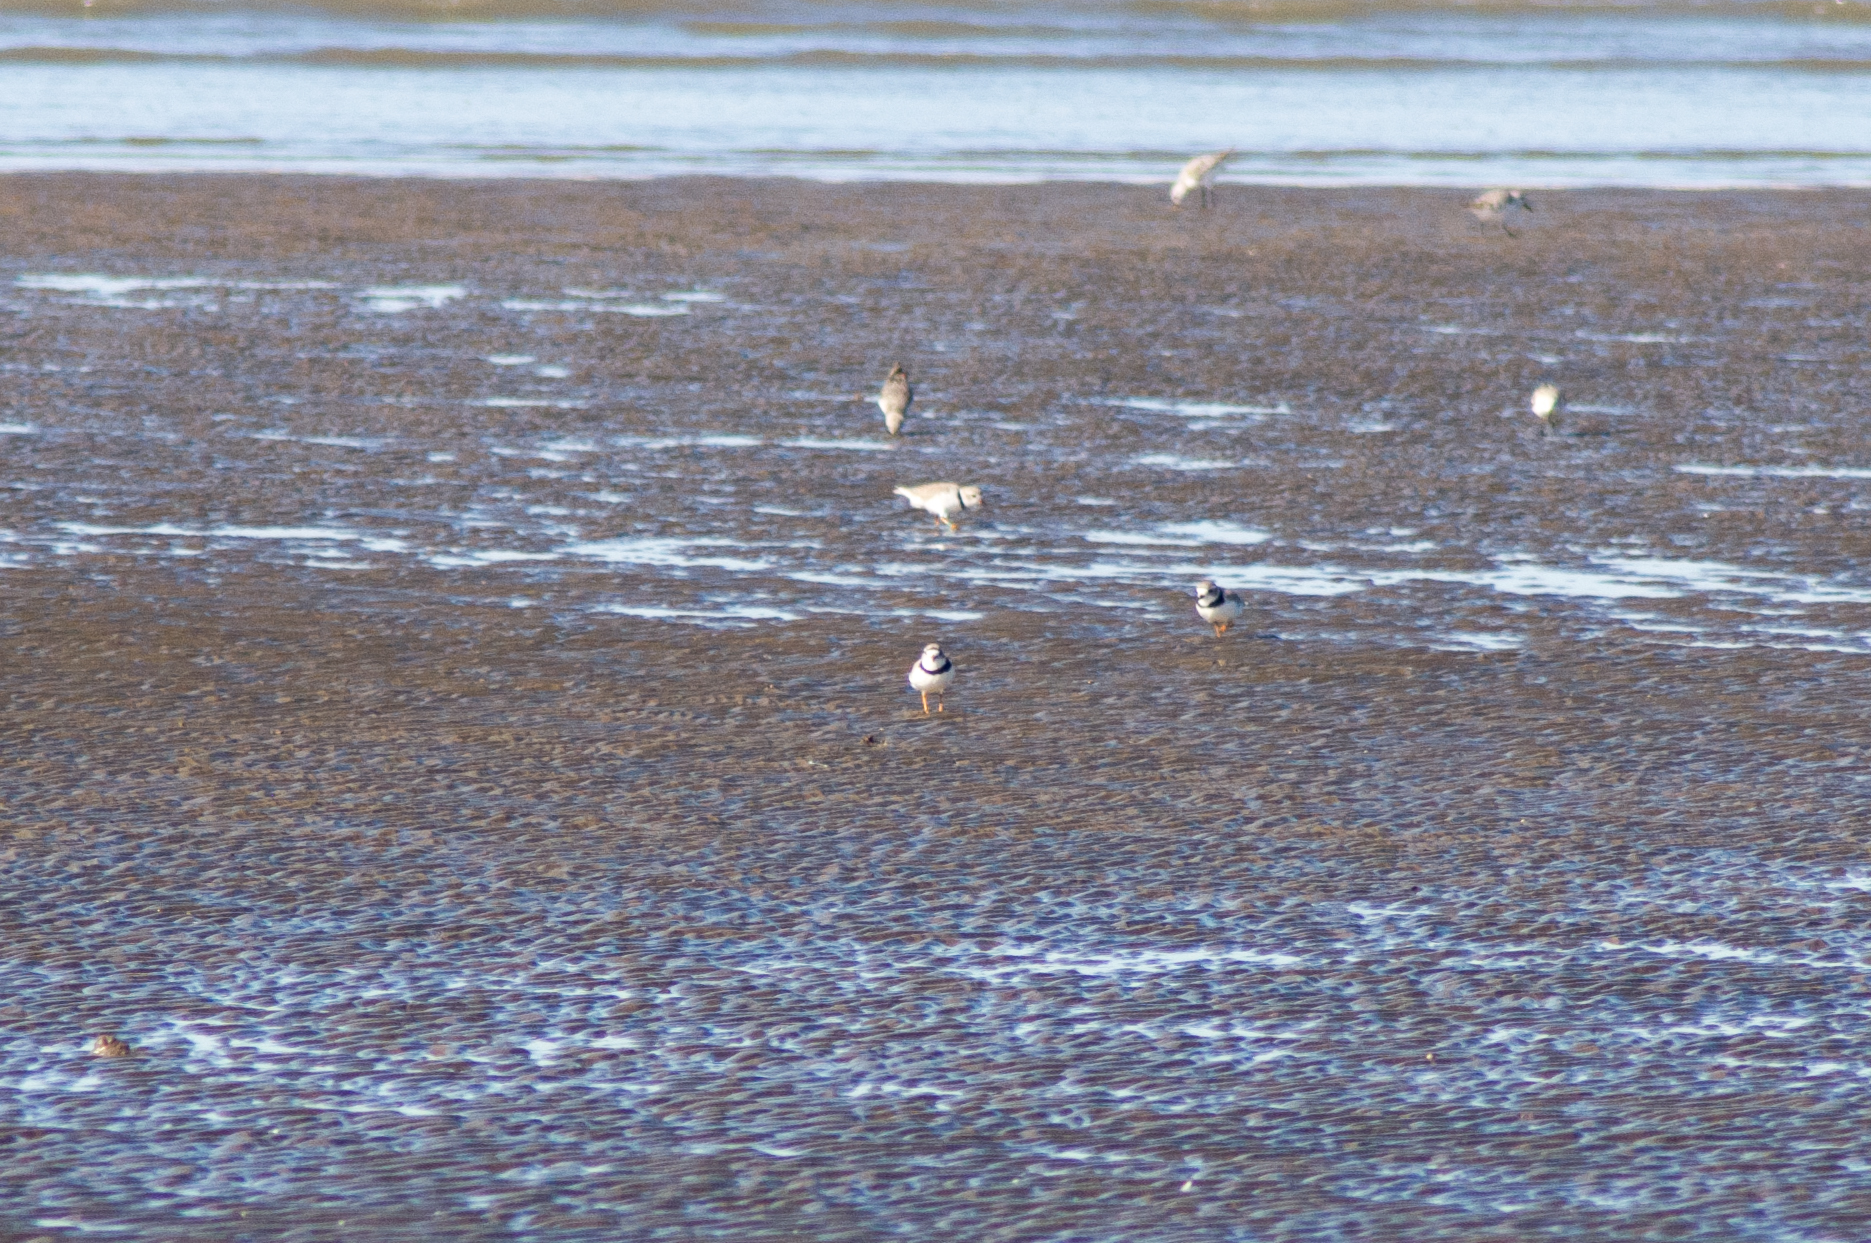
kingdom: Animalia
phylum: Chordata
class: Aves
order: Charadriiformes
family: Charadriidae
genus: Charadrius
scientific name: Charadrius melodus
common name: Piping plover
